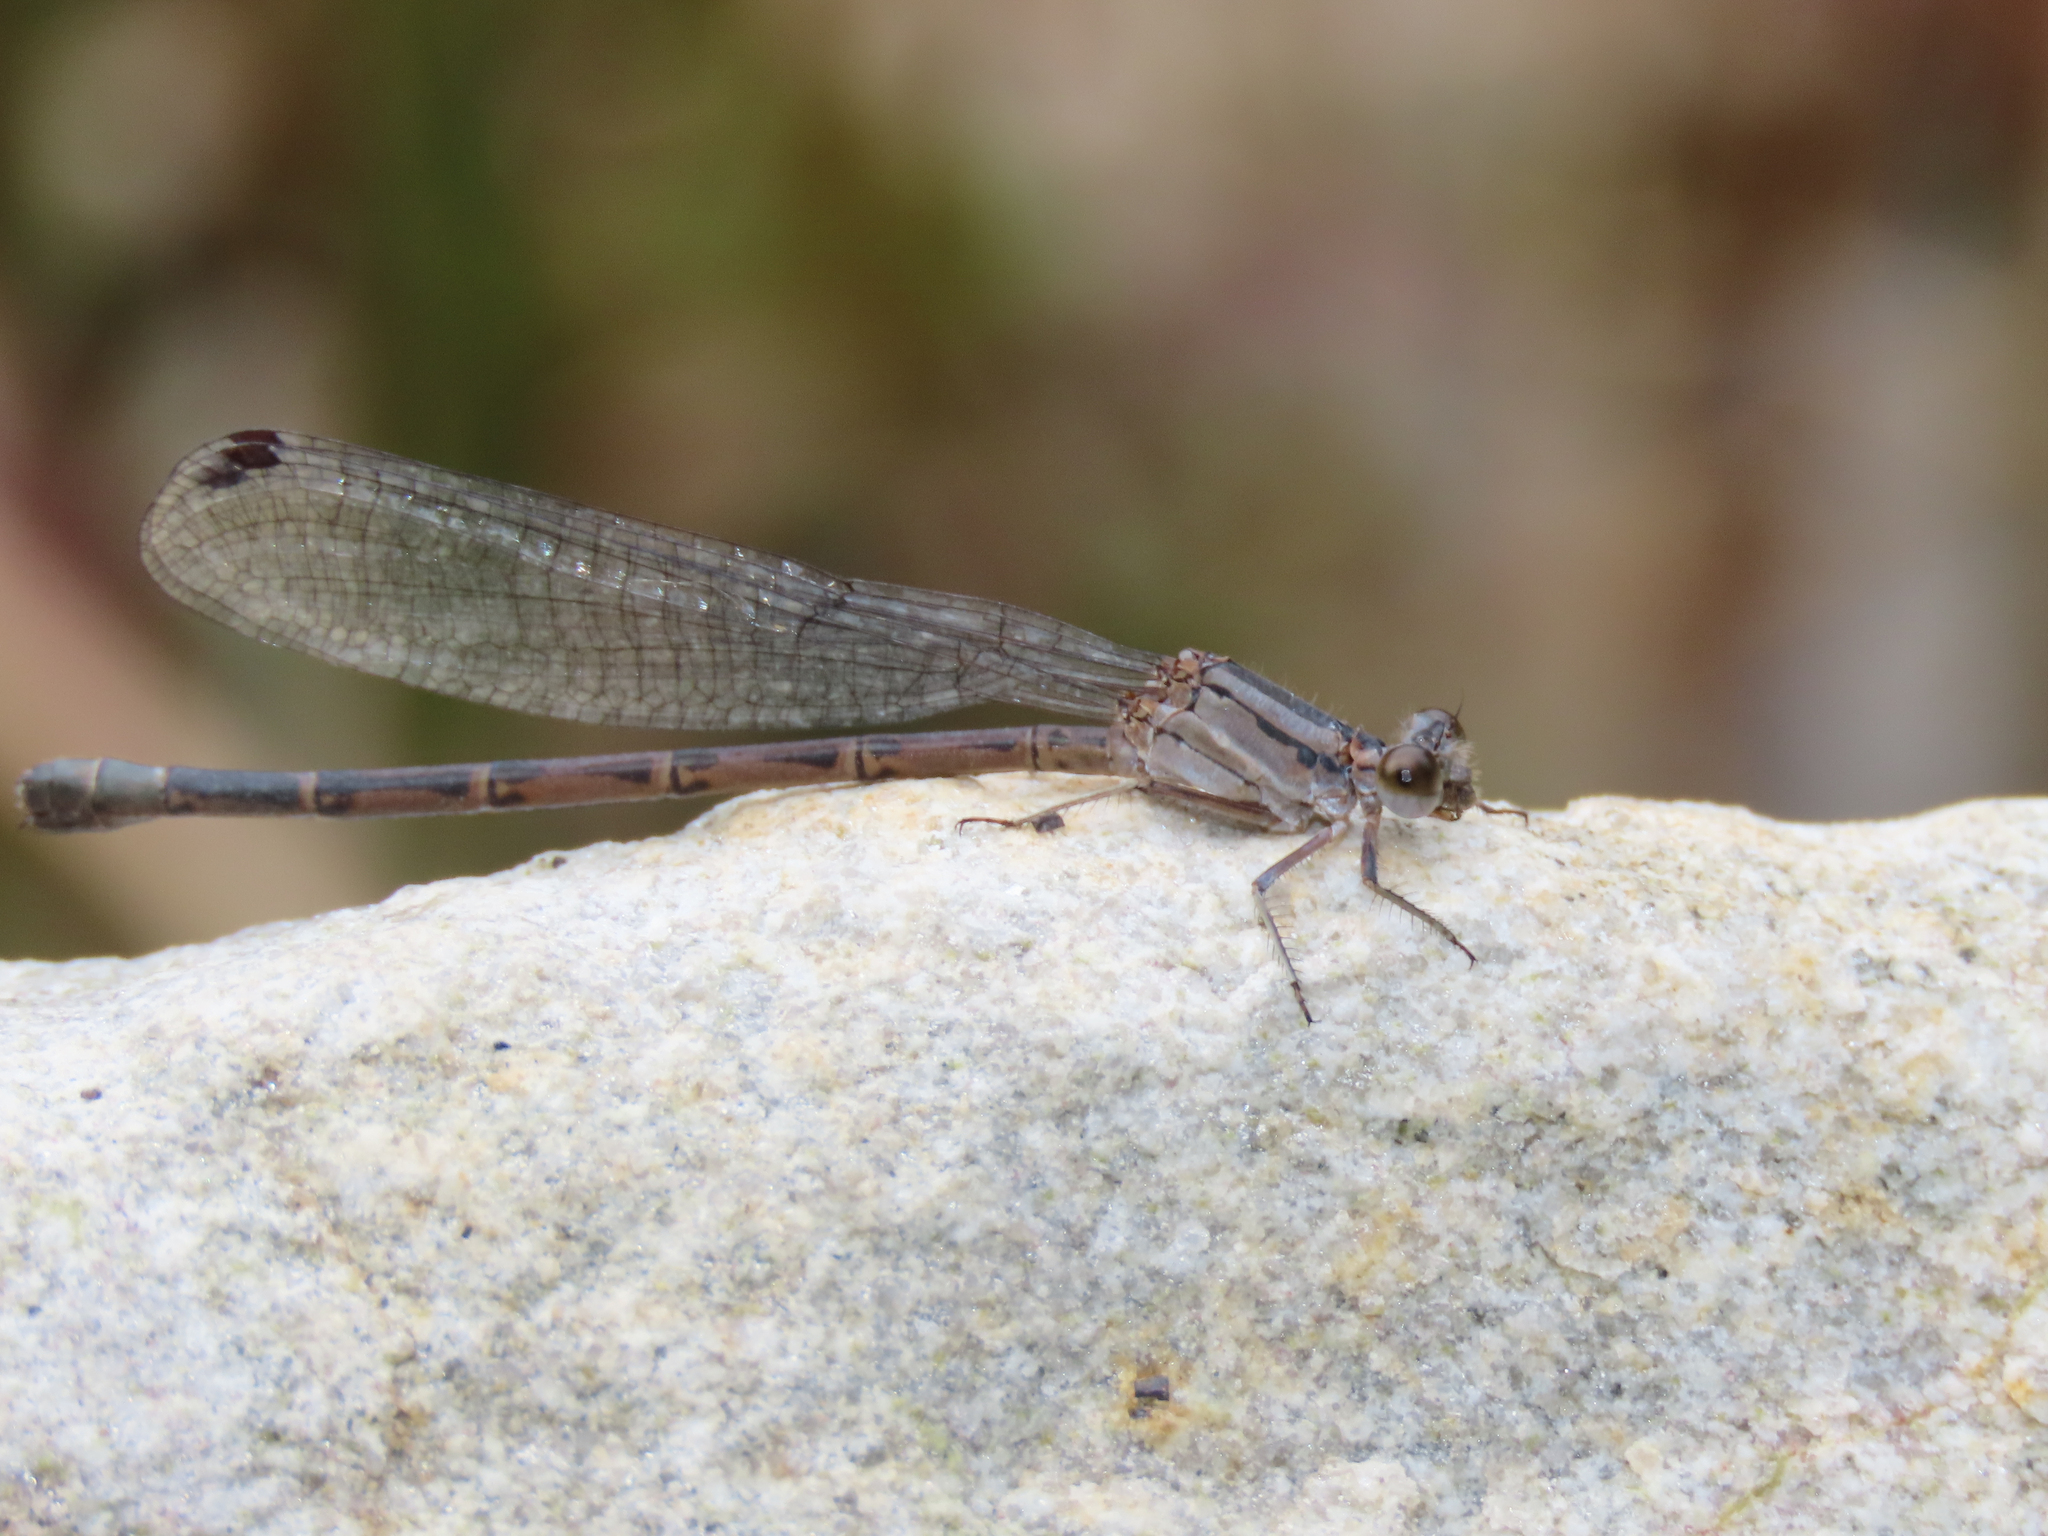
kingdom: Animalia
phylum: Arthropoda
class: Insecta
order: Odonata
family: Coenagrionidae
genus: Argia
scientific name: Argia funebris
